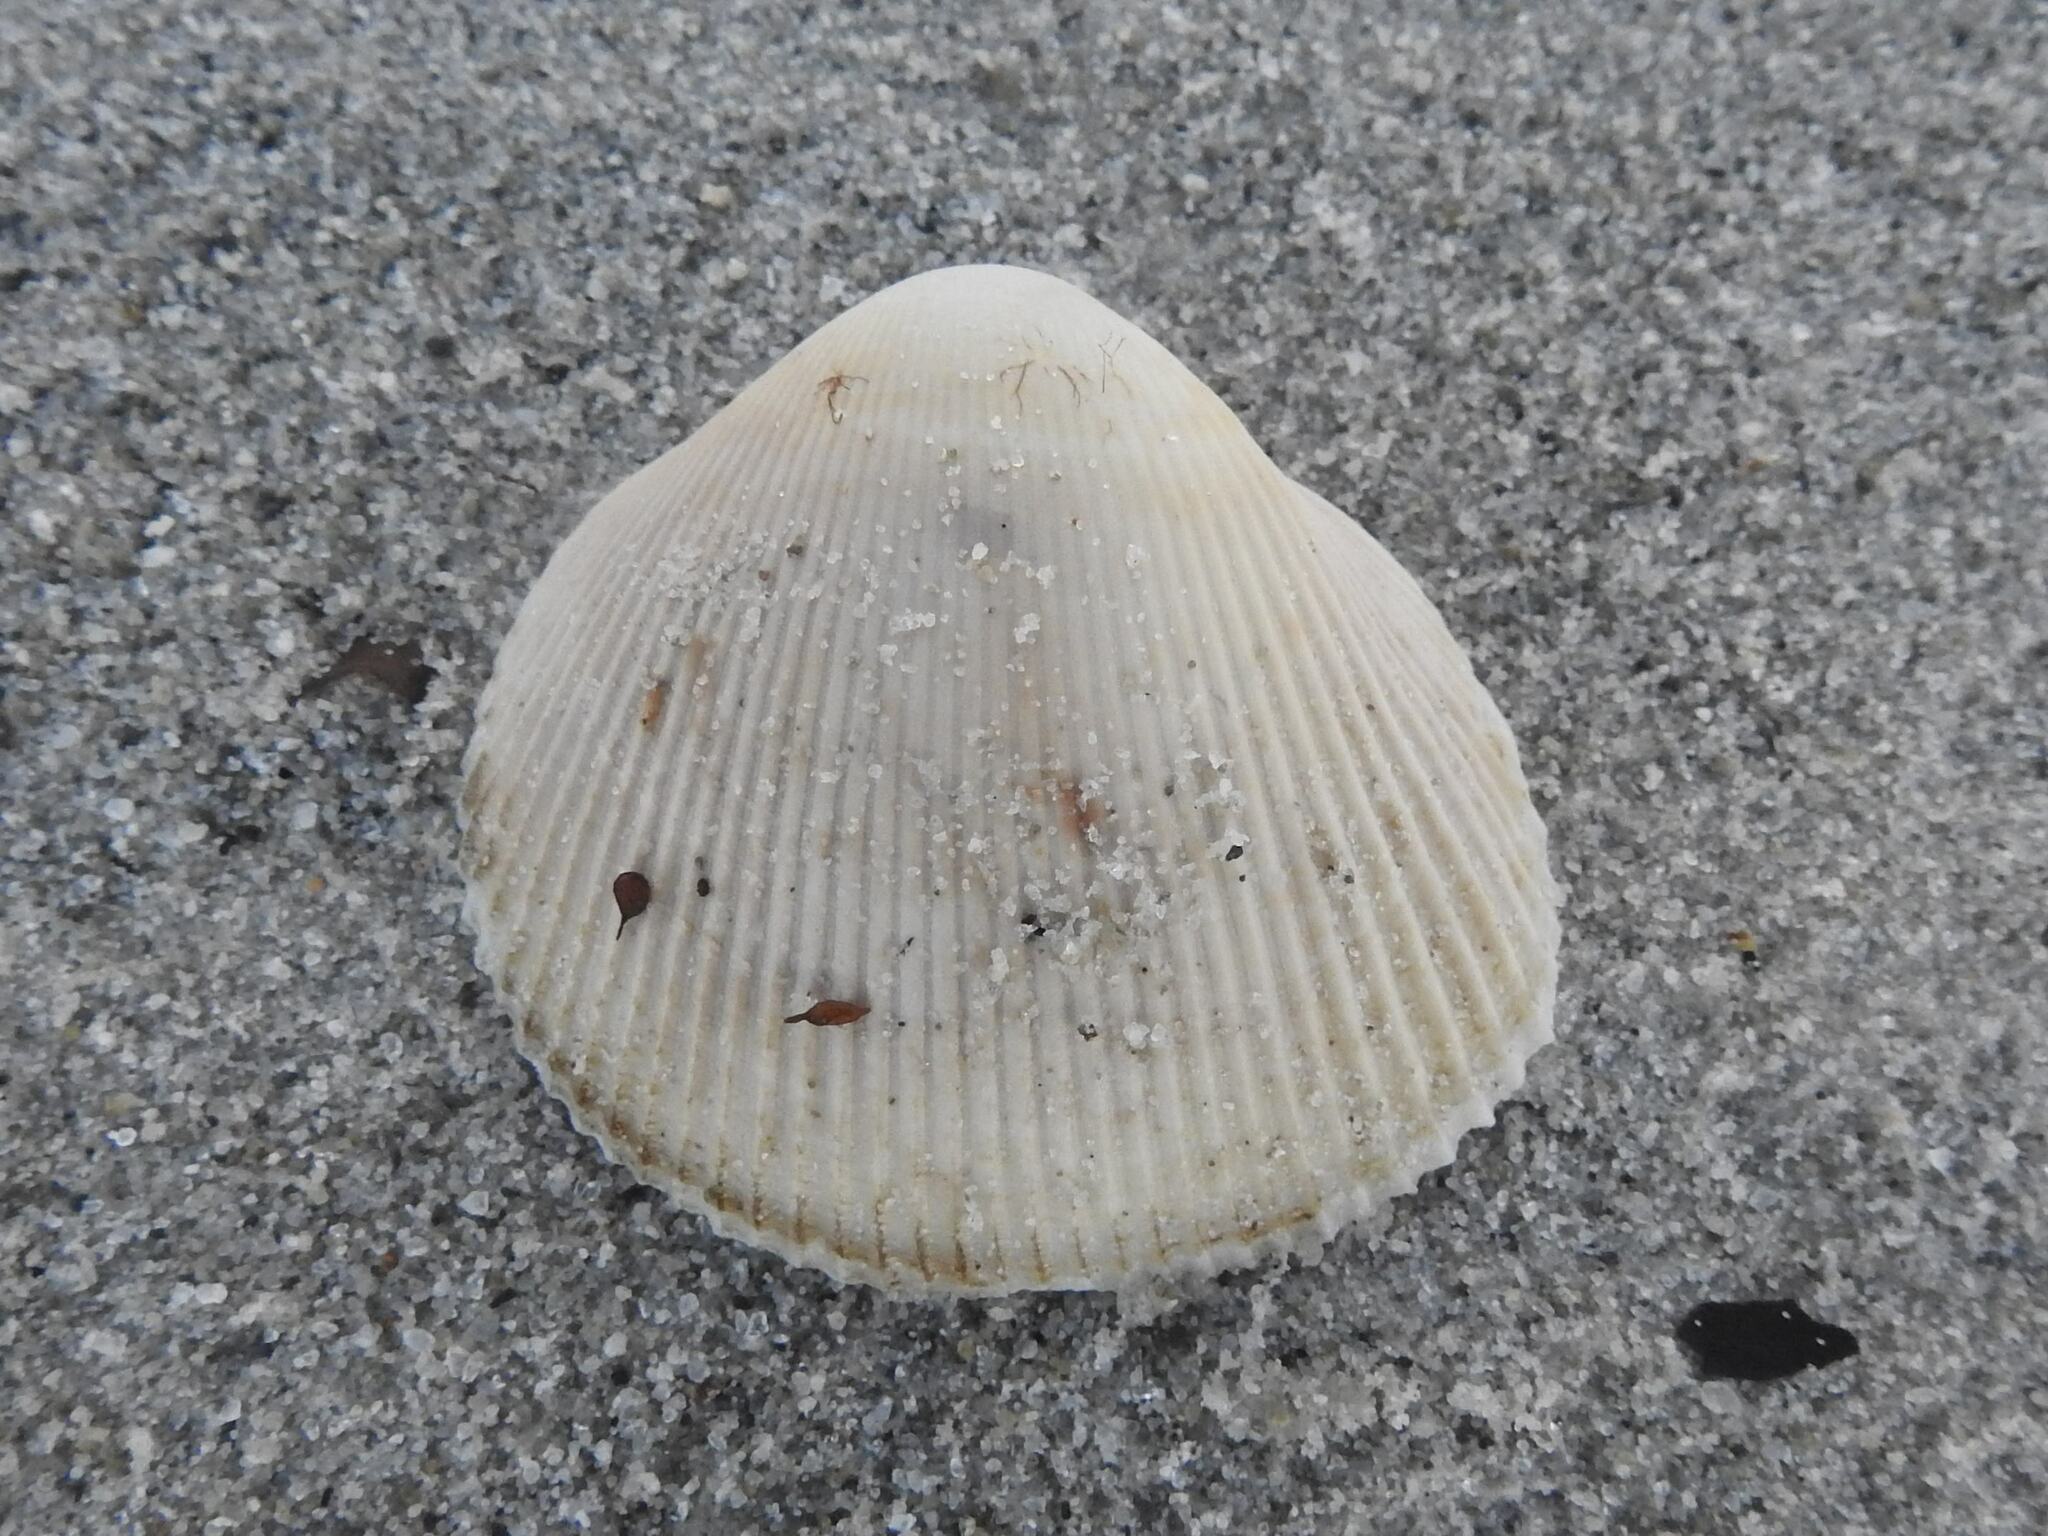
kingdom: Animalia
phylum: Mollusca
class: Bivalvia
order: Cardiida
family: Cardiidae
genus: Fulvia
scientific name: Fulvia tenuicostata
